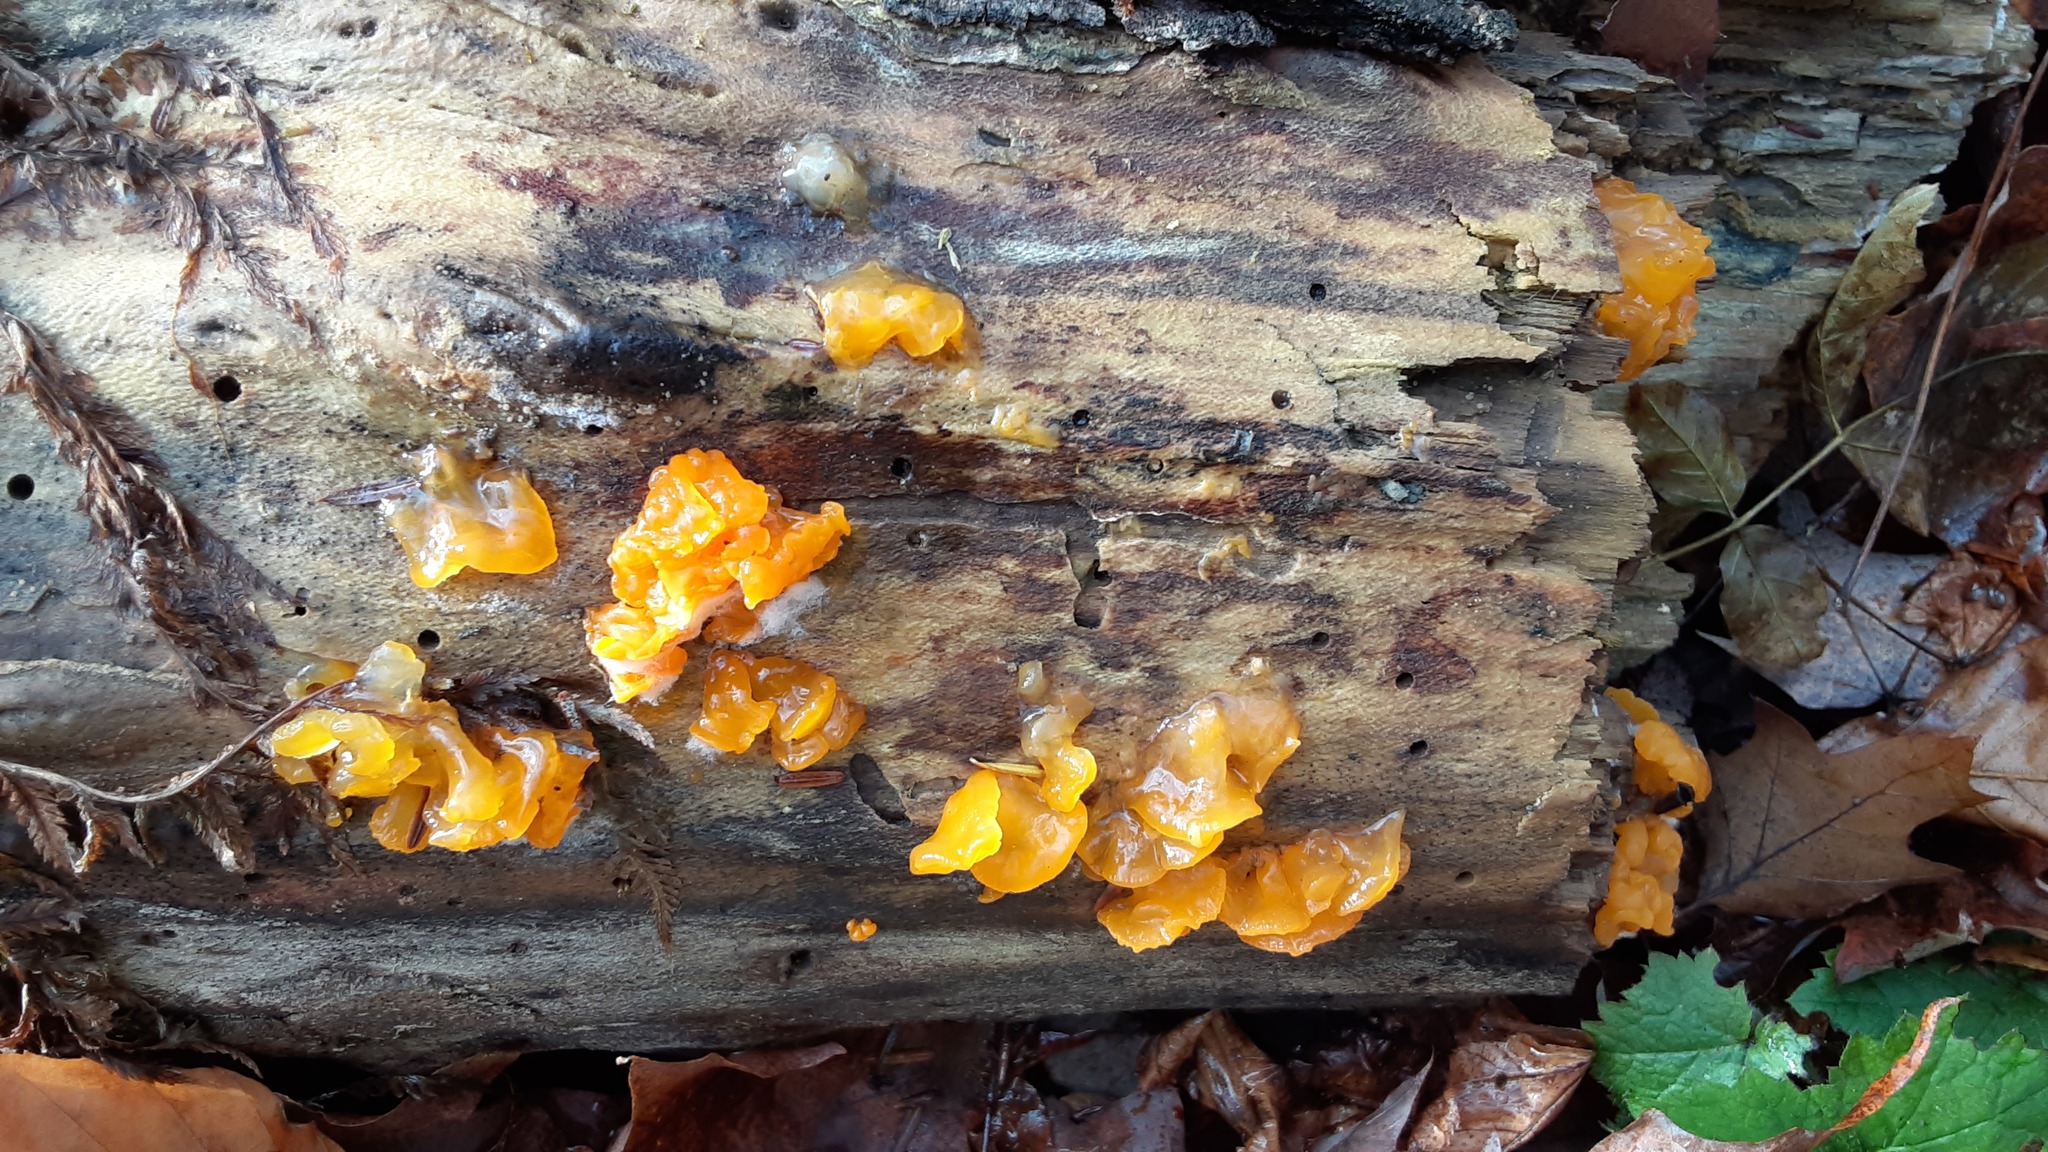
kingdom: Fungi
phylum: Basidiomycota
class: Dacrymycetes
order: Dacrymycetales
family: Dacrymycetaceae
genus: Dacrymyces
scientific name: Dacrymyces chrysospermus
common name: Orange jelly spot
